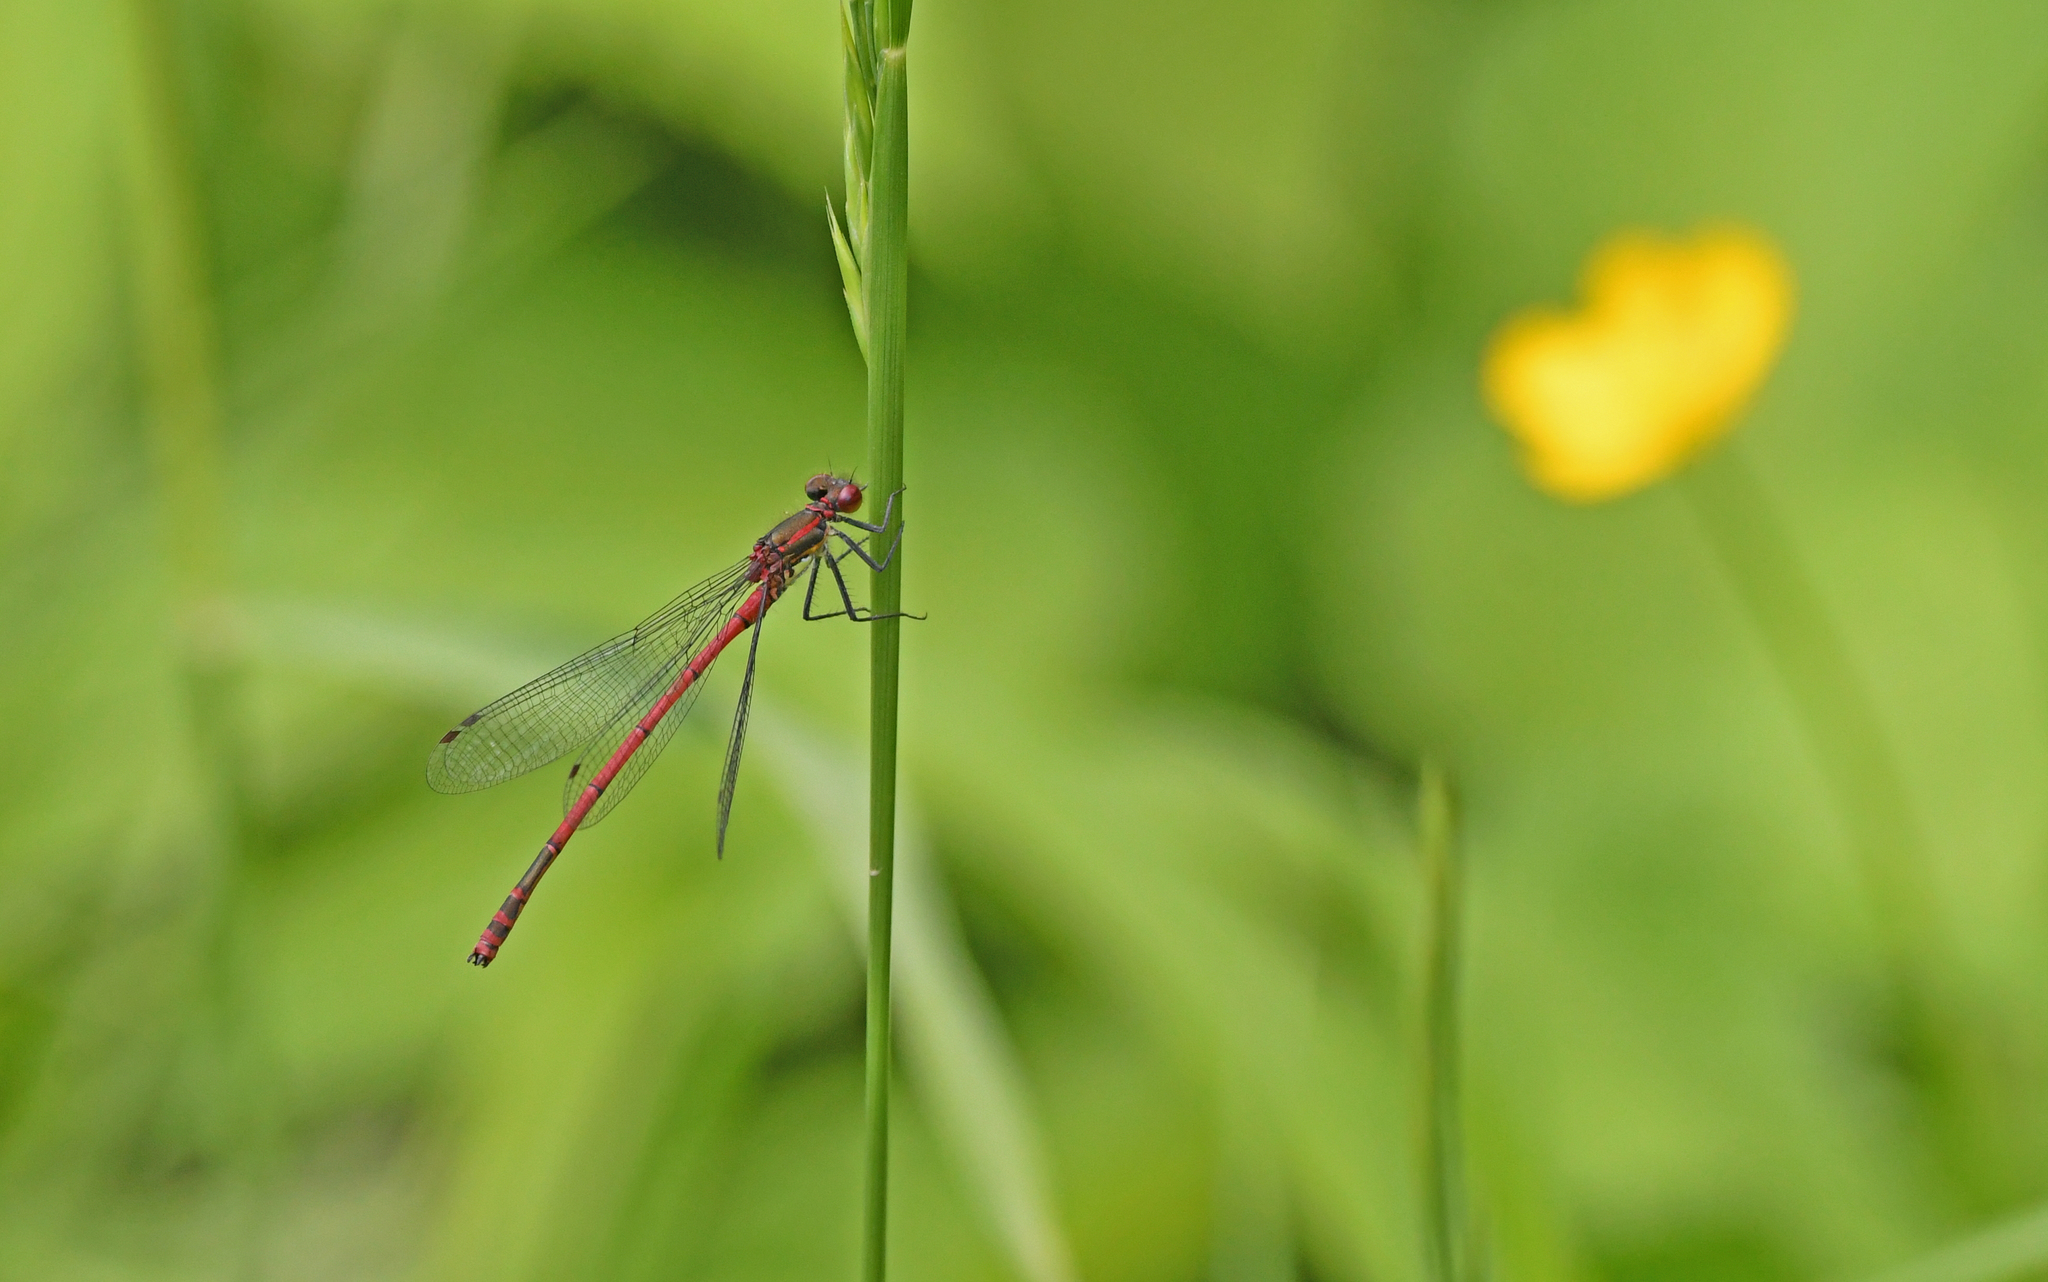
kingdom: Animalia
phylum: Arthropoda
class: Insecta
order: Odonata
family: Coenagrionidae
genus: Pyrrhosoma
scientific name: Pyrrhosoma nymphula
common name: Large red damsel
